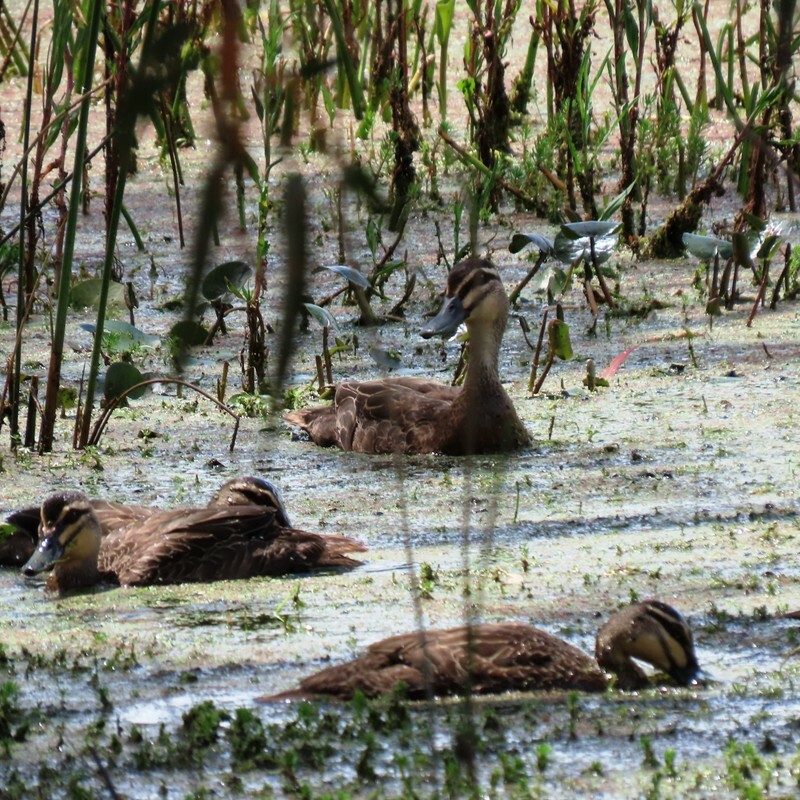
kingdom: Animalia
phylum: Chordata
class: Aves
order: Anseriformes
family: Anatidae
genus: Anas
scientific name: Anas superciliosa
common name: Pacific black duck
